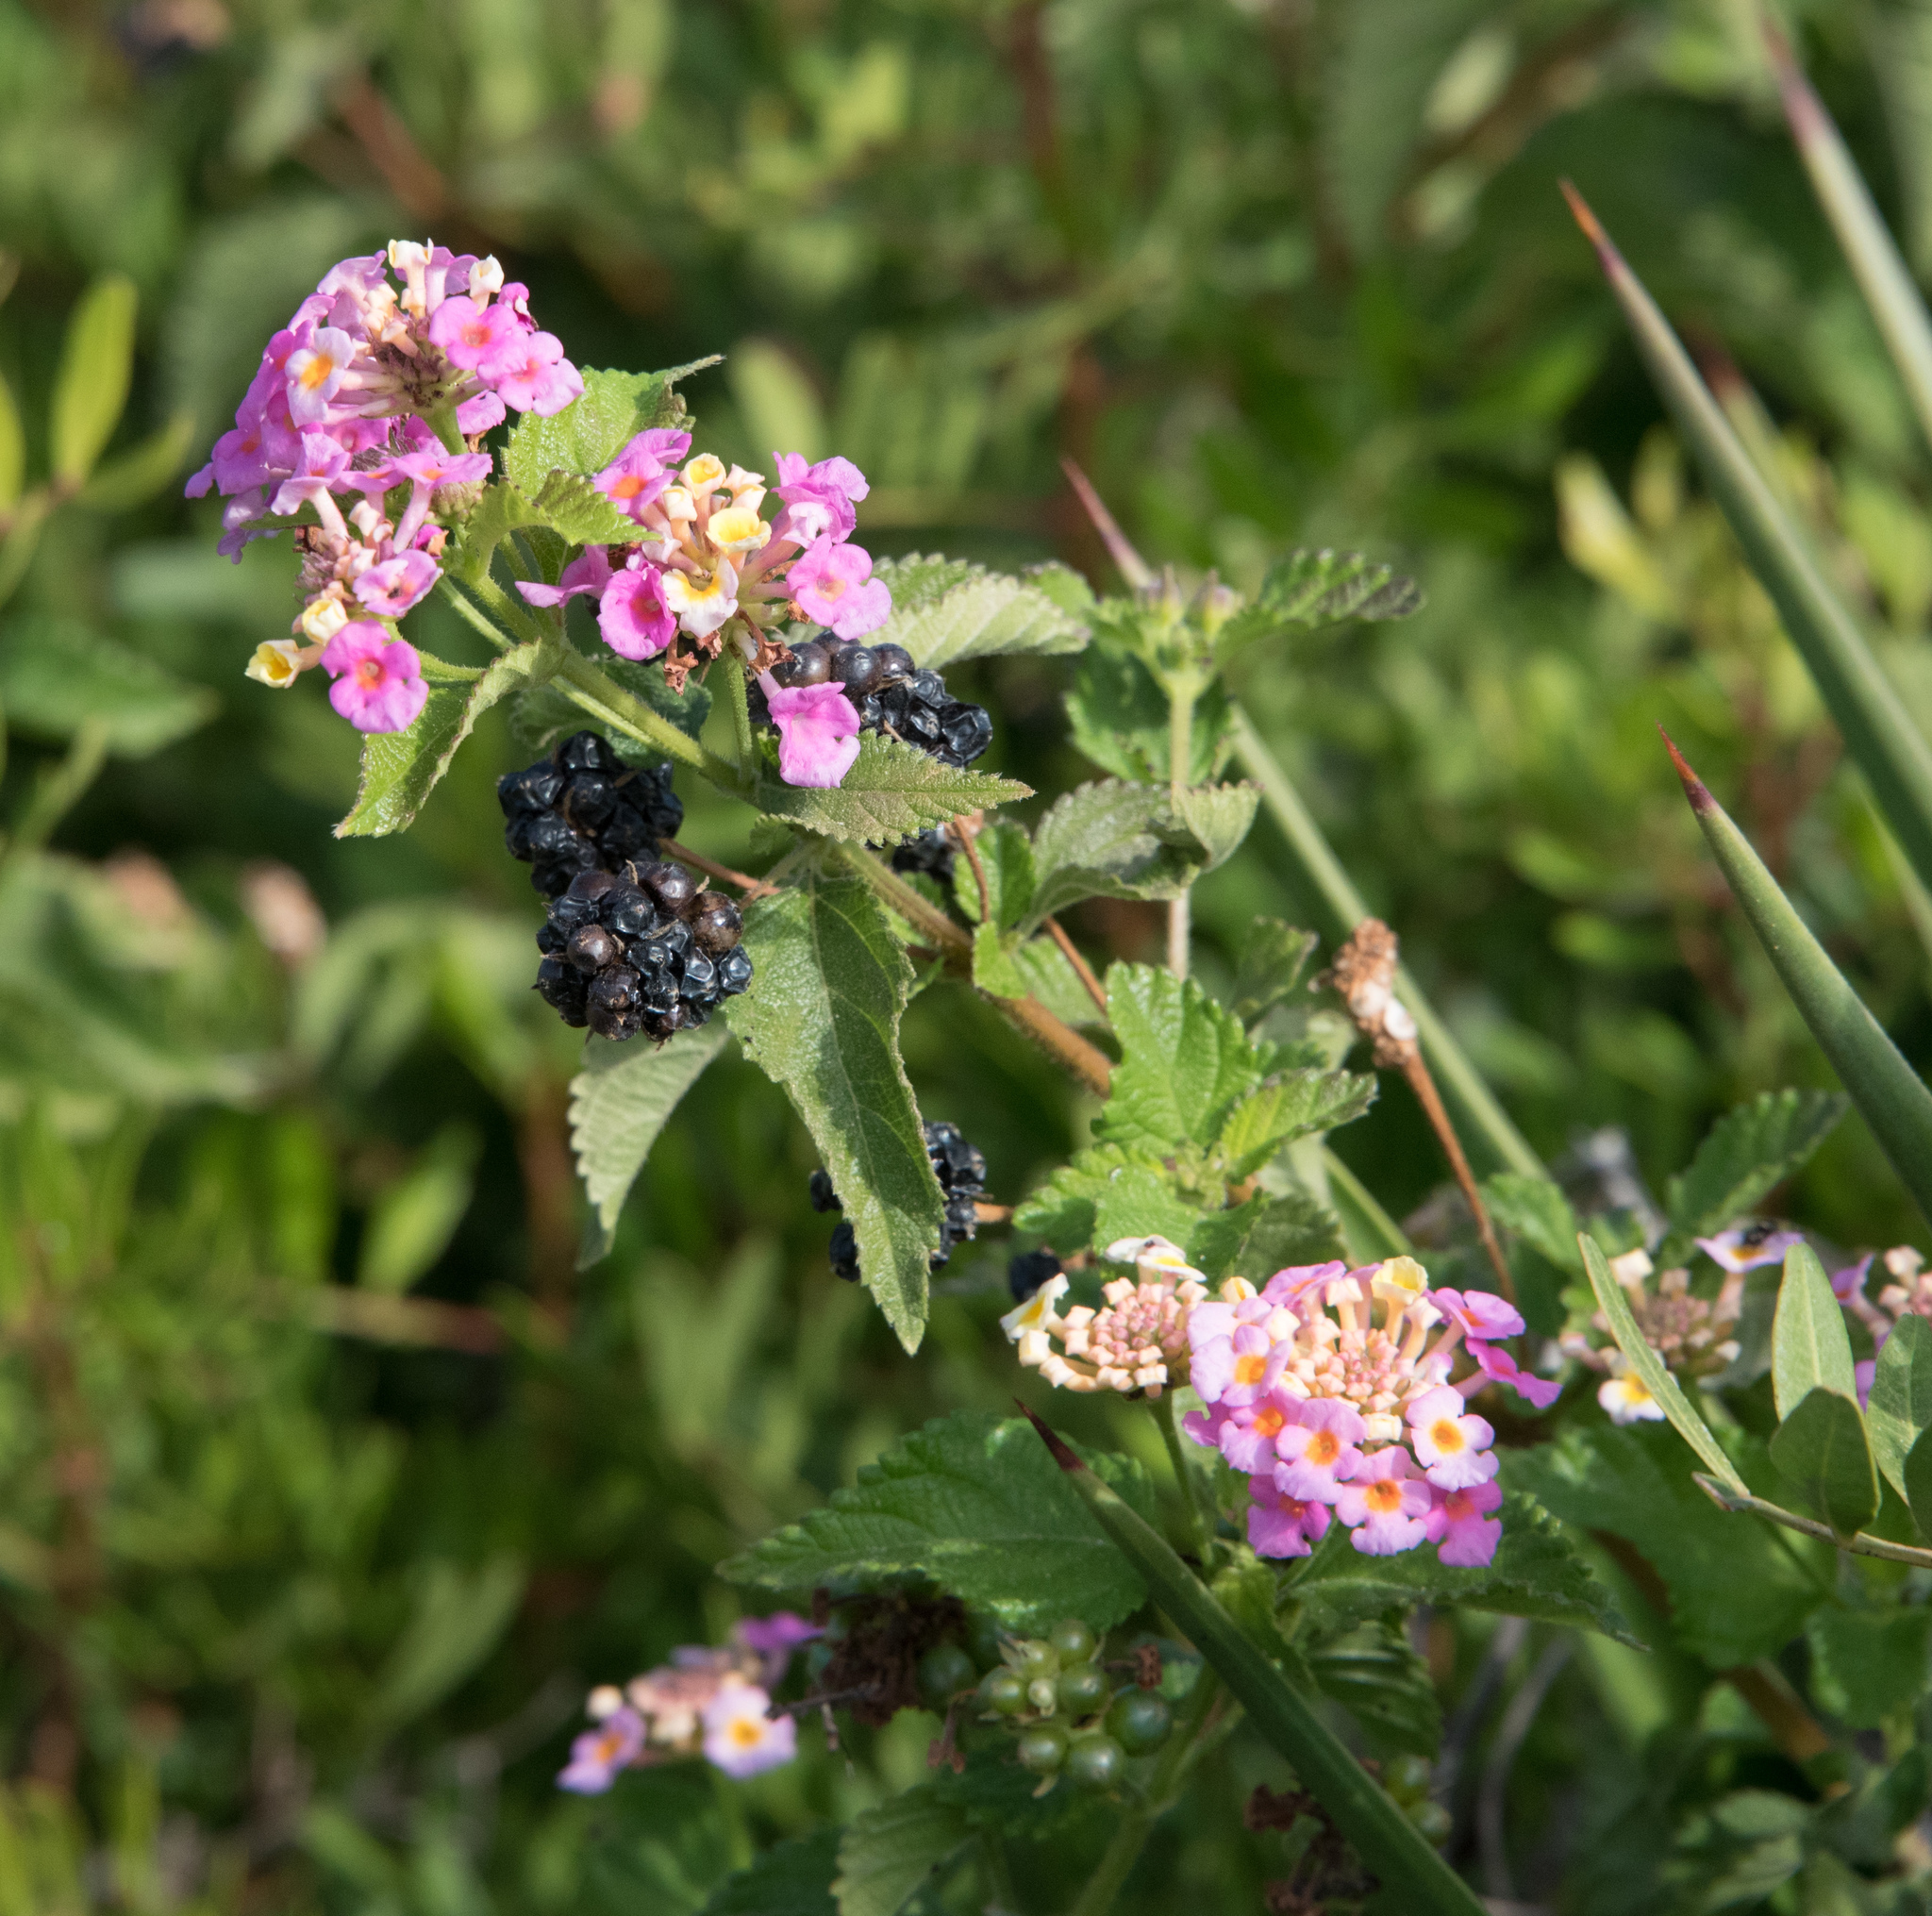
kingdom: Plantae
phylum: Tracheophyta
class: Magnoliopsida
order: Lamiales
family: Verbenaceae
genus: Lantana
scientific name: Lantana camara
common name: Lantana
